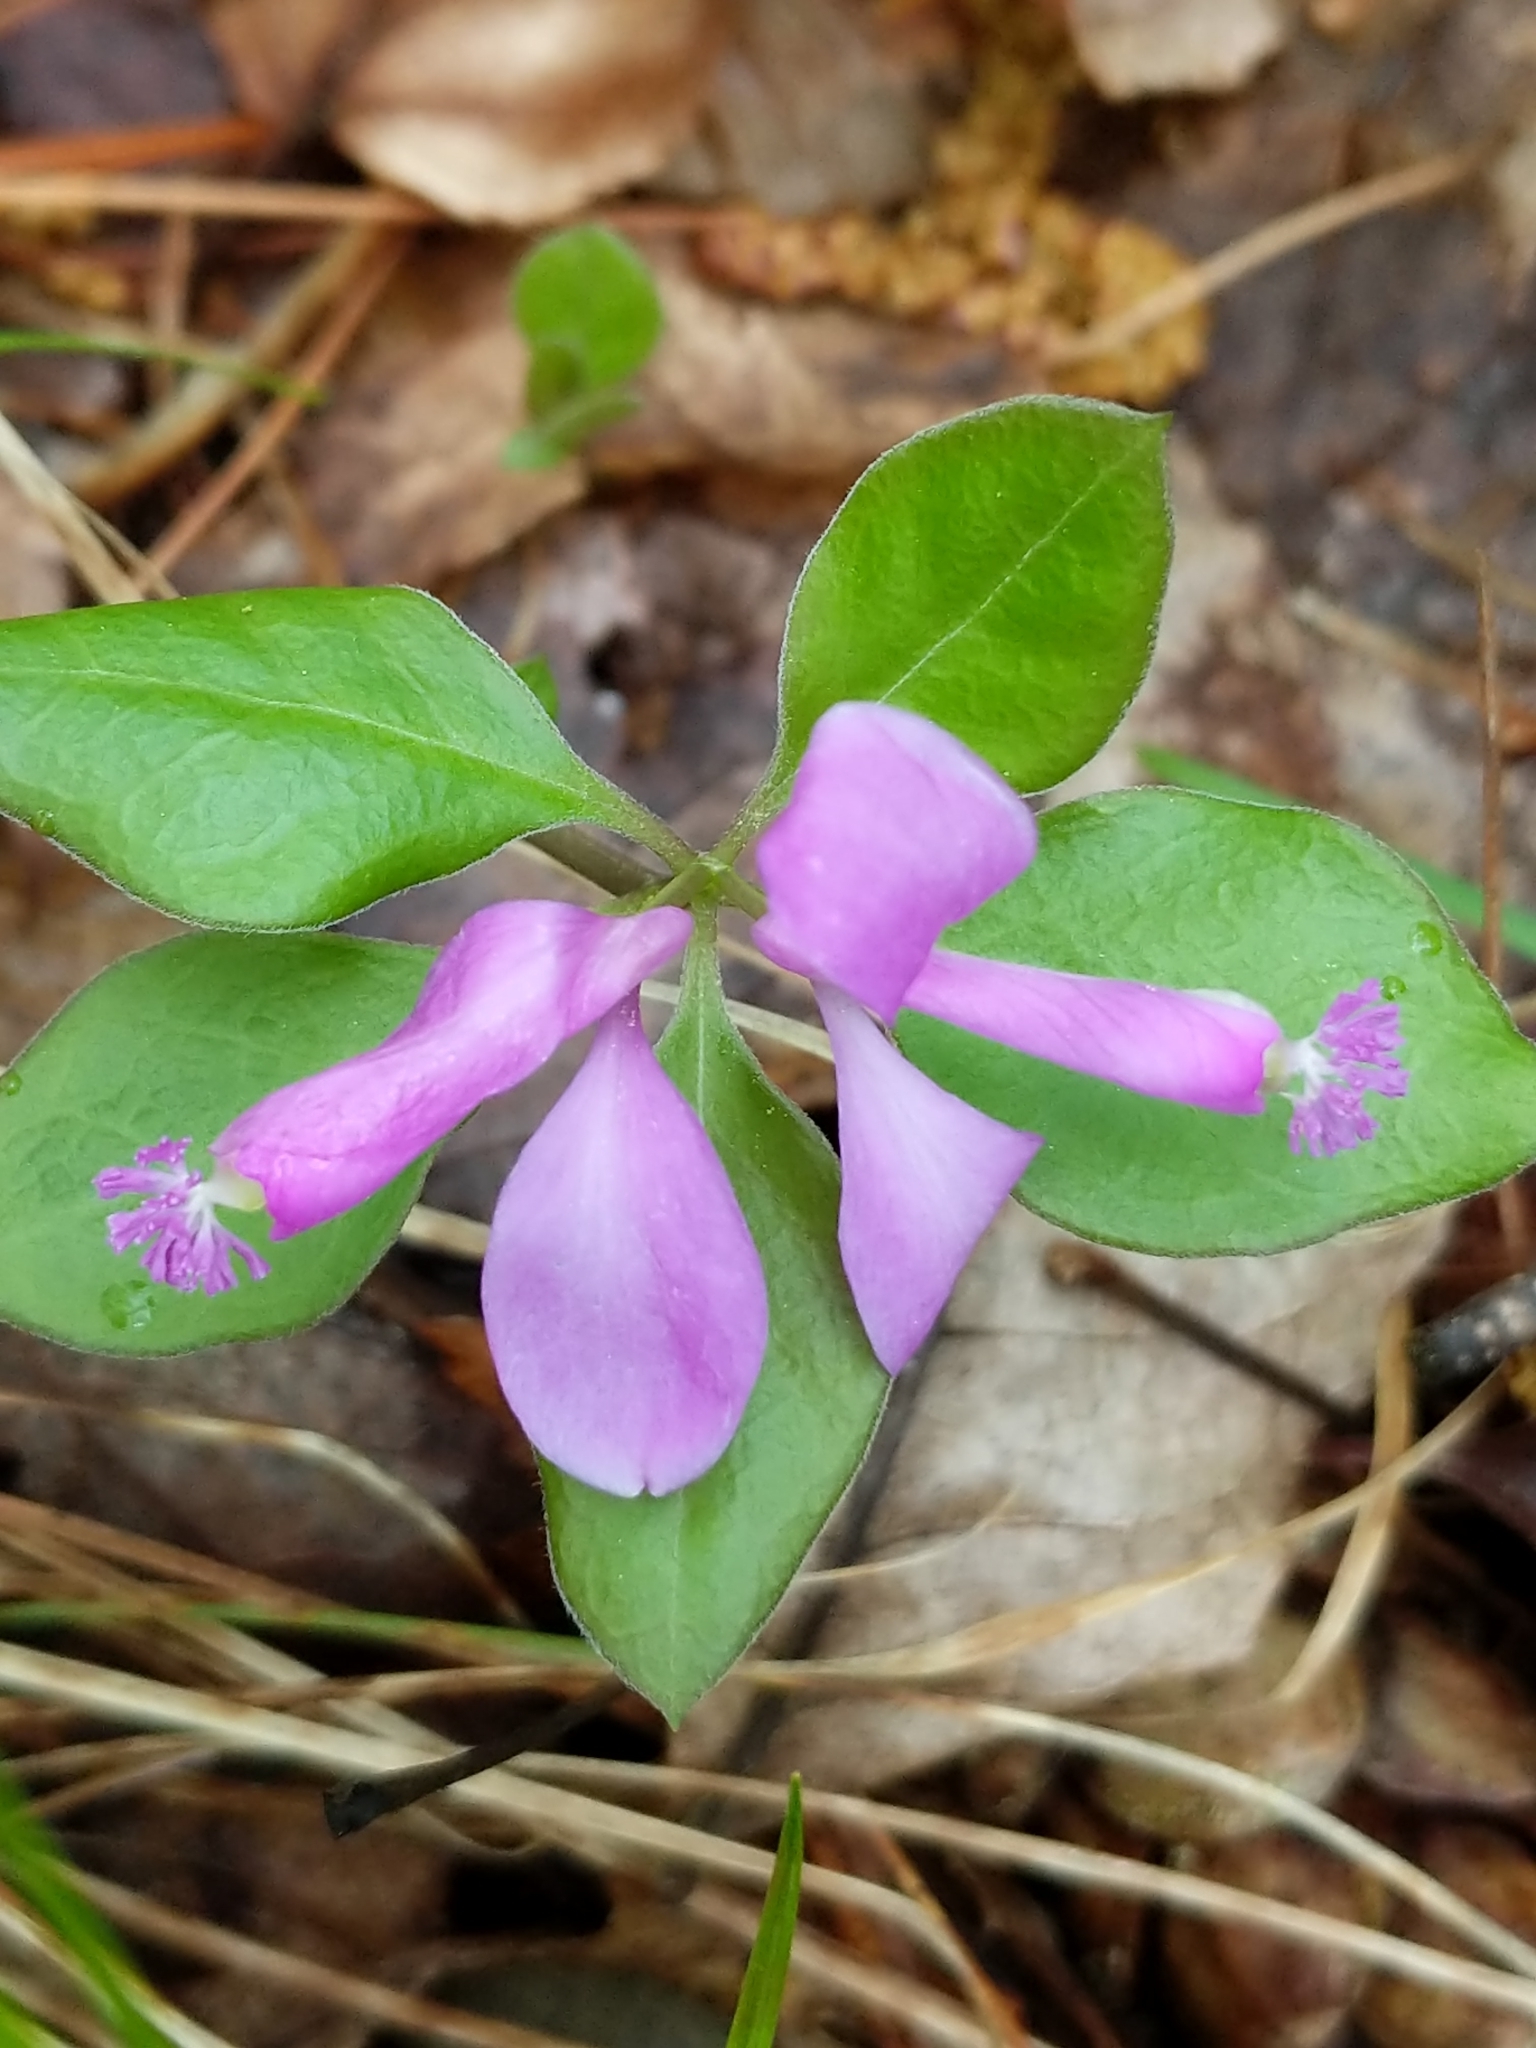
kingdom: Plantae
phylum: Tracheophyta
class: Magnoliopsida
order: Fabales
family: Polygalaceae
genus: Polygaloides
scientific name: Polygaloides paucifolia
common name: Bird-on-the-wing
